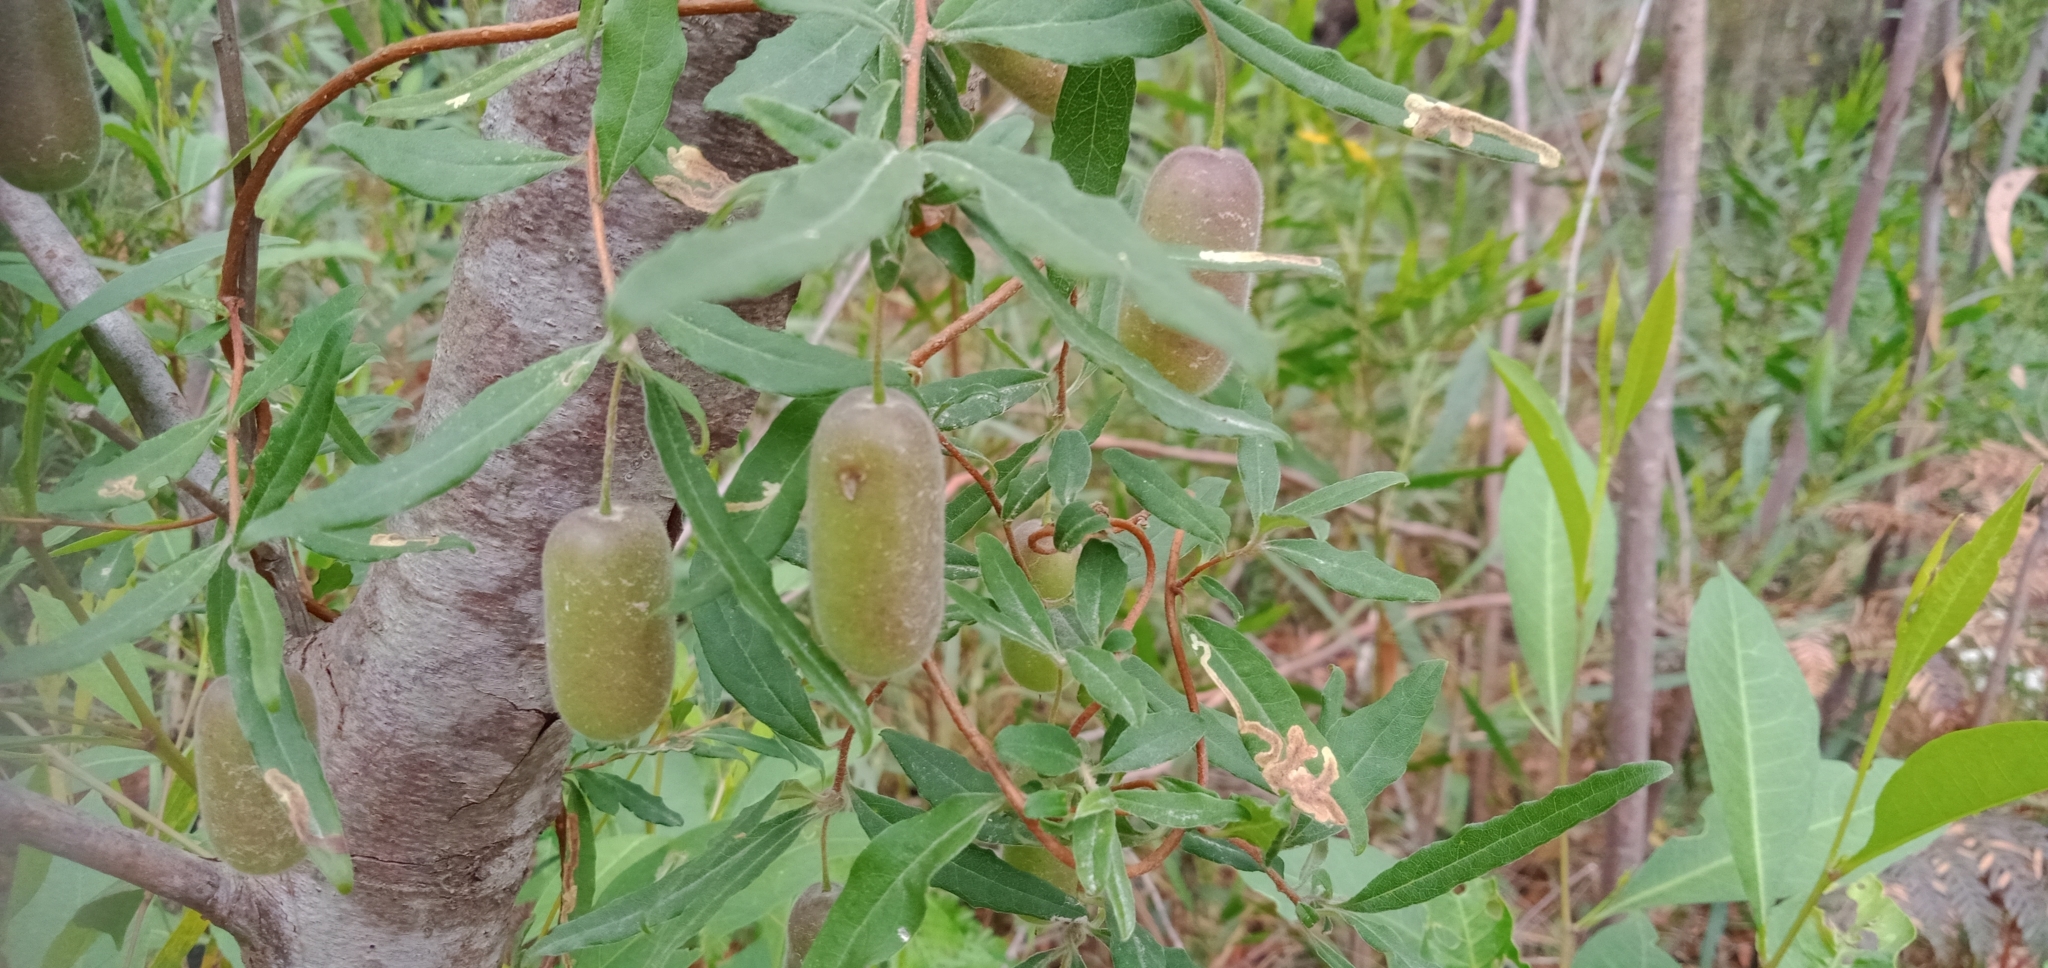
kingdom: Plantae
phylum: Tracheophyta
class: Magnoliopsida
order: Apiales
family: Pittosporaceae
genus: Billardiera
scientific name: Billardiera scandens
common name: Apple-berry
